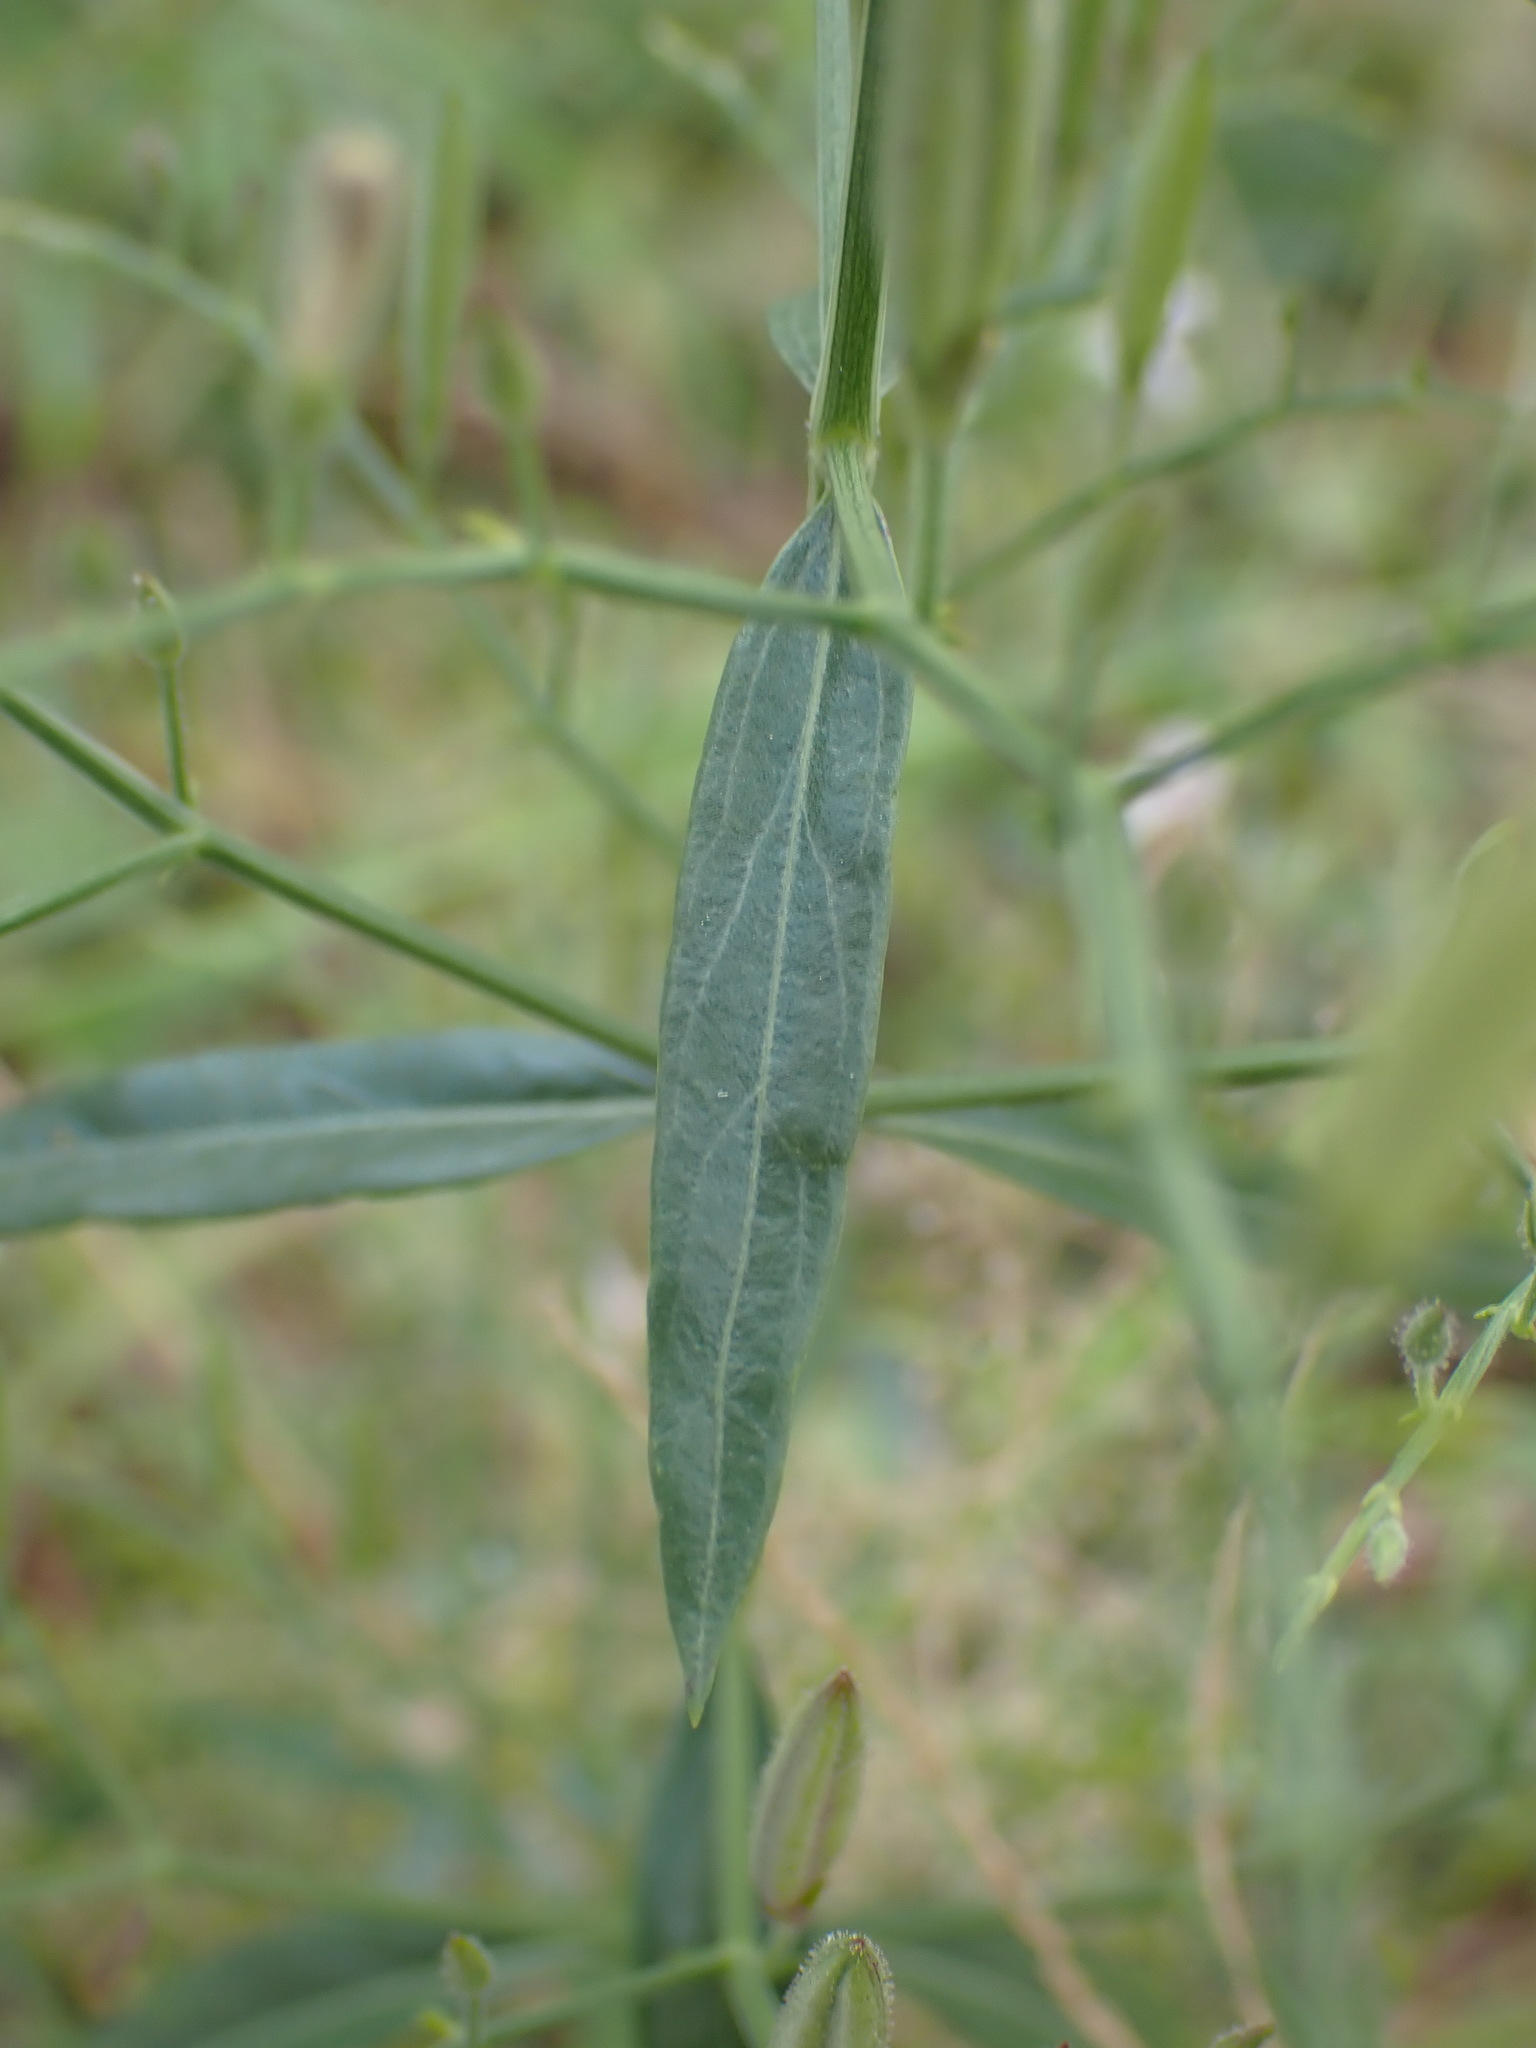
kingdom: Plantae
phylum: Tracheophyta
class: Magnoliopsida
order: Lamiales
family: Acanthaceae
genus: Andrographis
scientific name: Andrographis paniculata
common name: Green chireta
